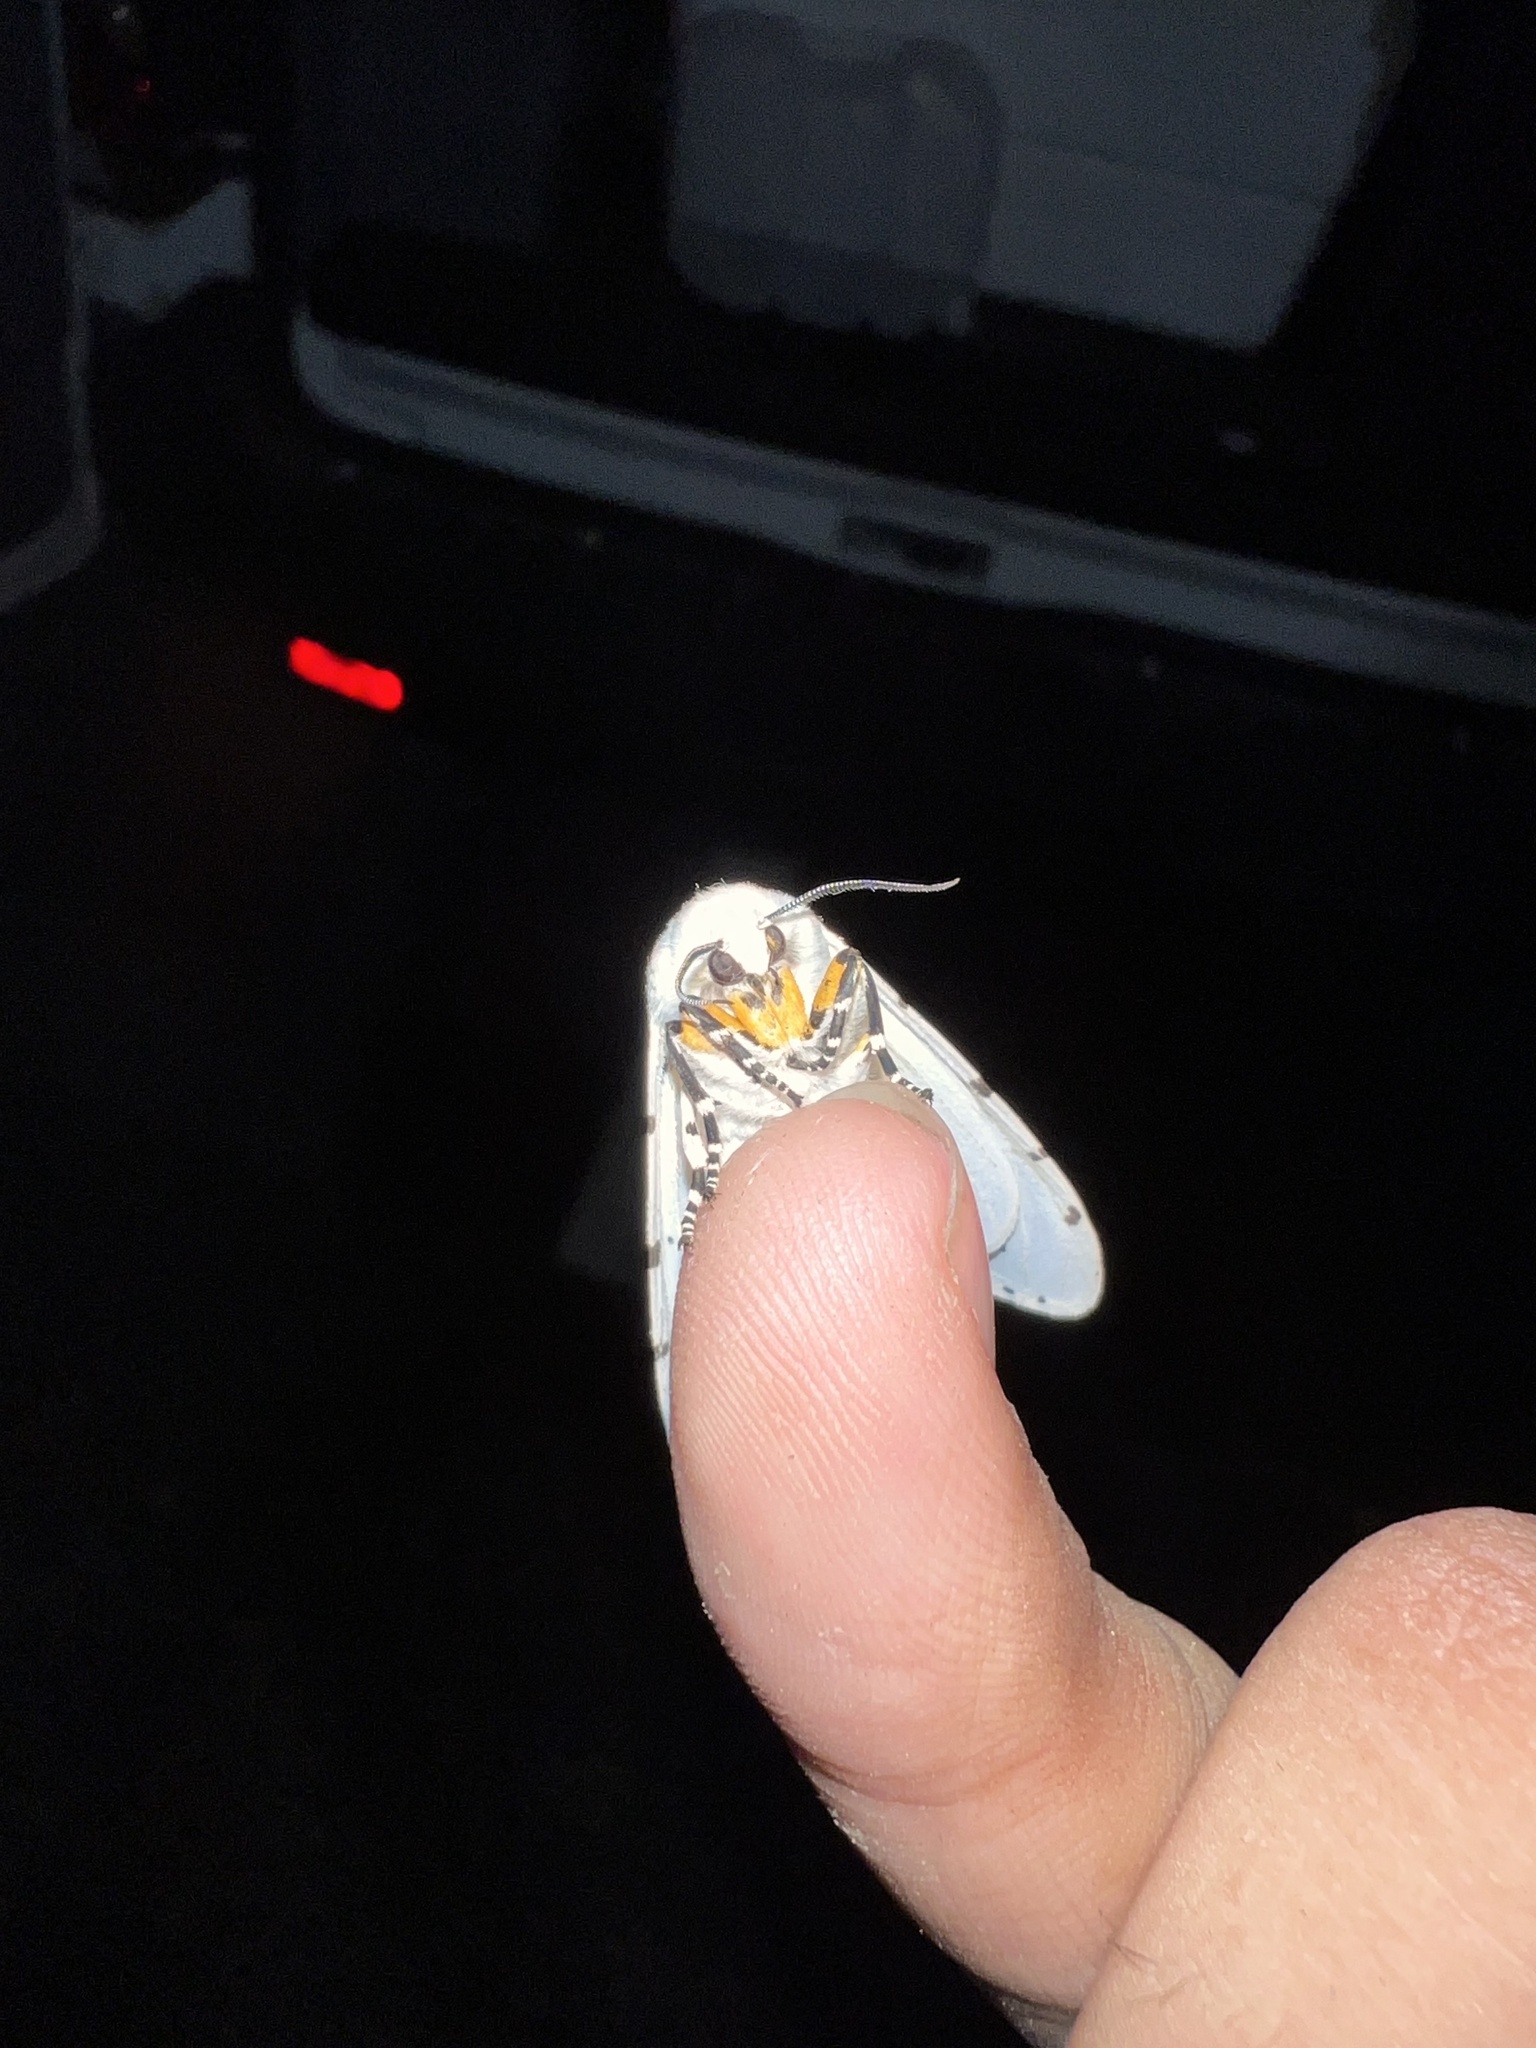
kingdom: Animalia
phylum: Arthropoda
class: Insecta
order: Lepidoptera
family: Erebidae
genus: Estigmene
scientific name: Estigmene acrea
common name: Salt marsh moth
